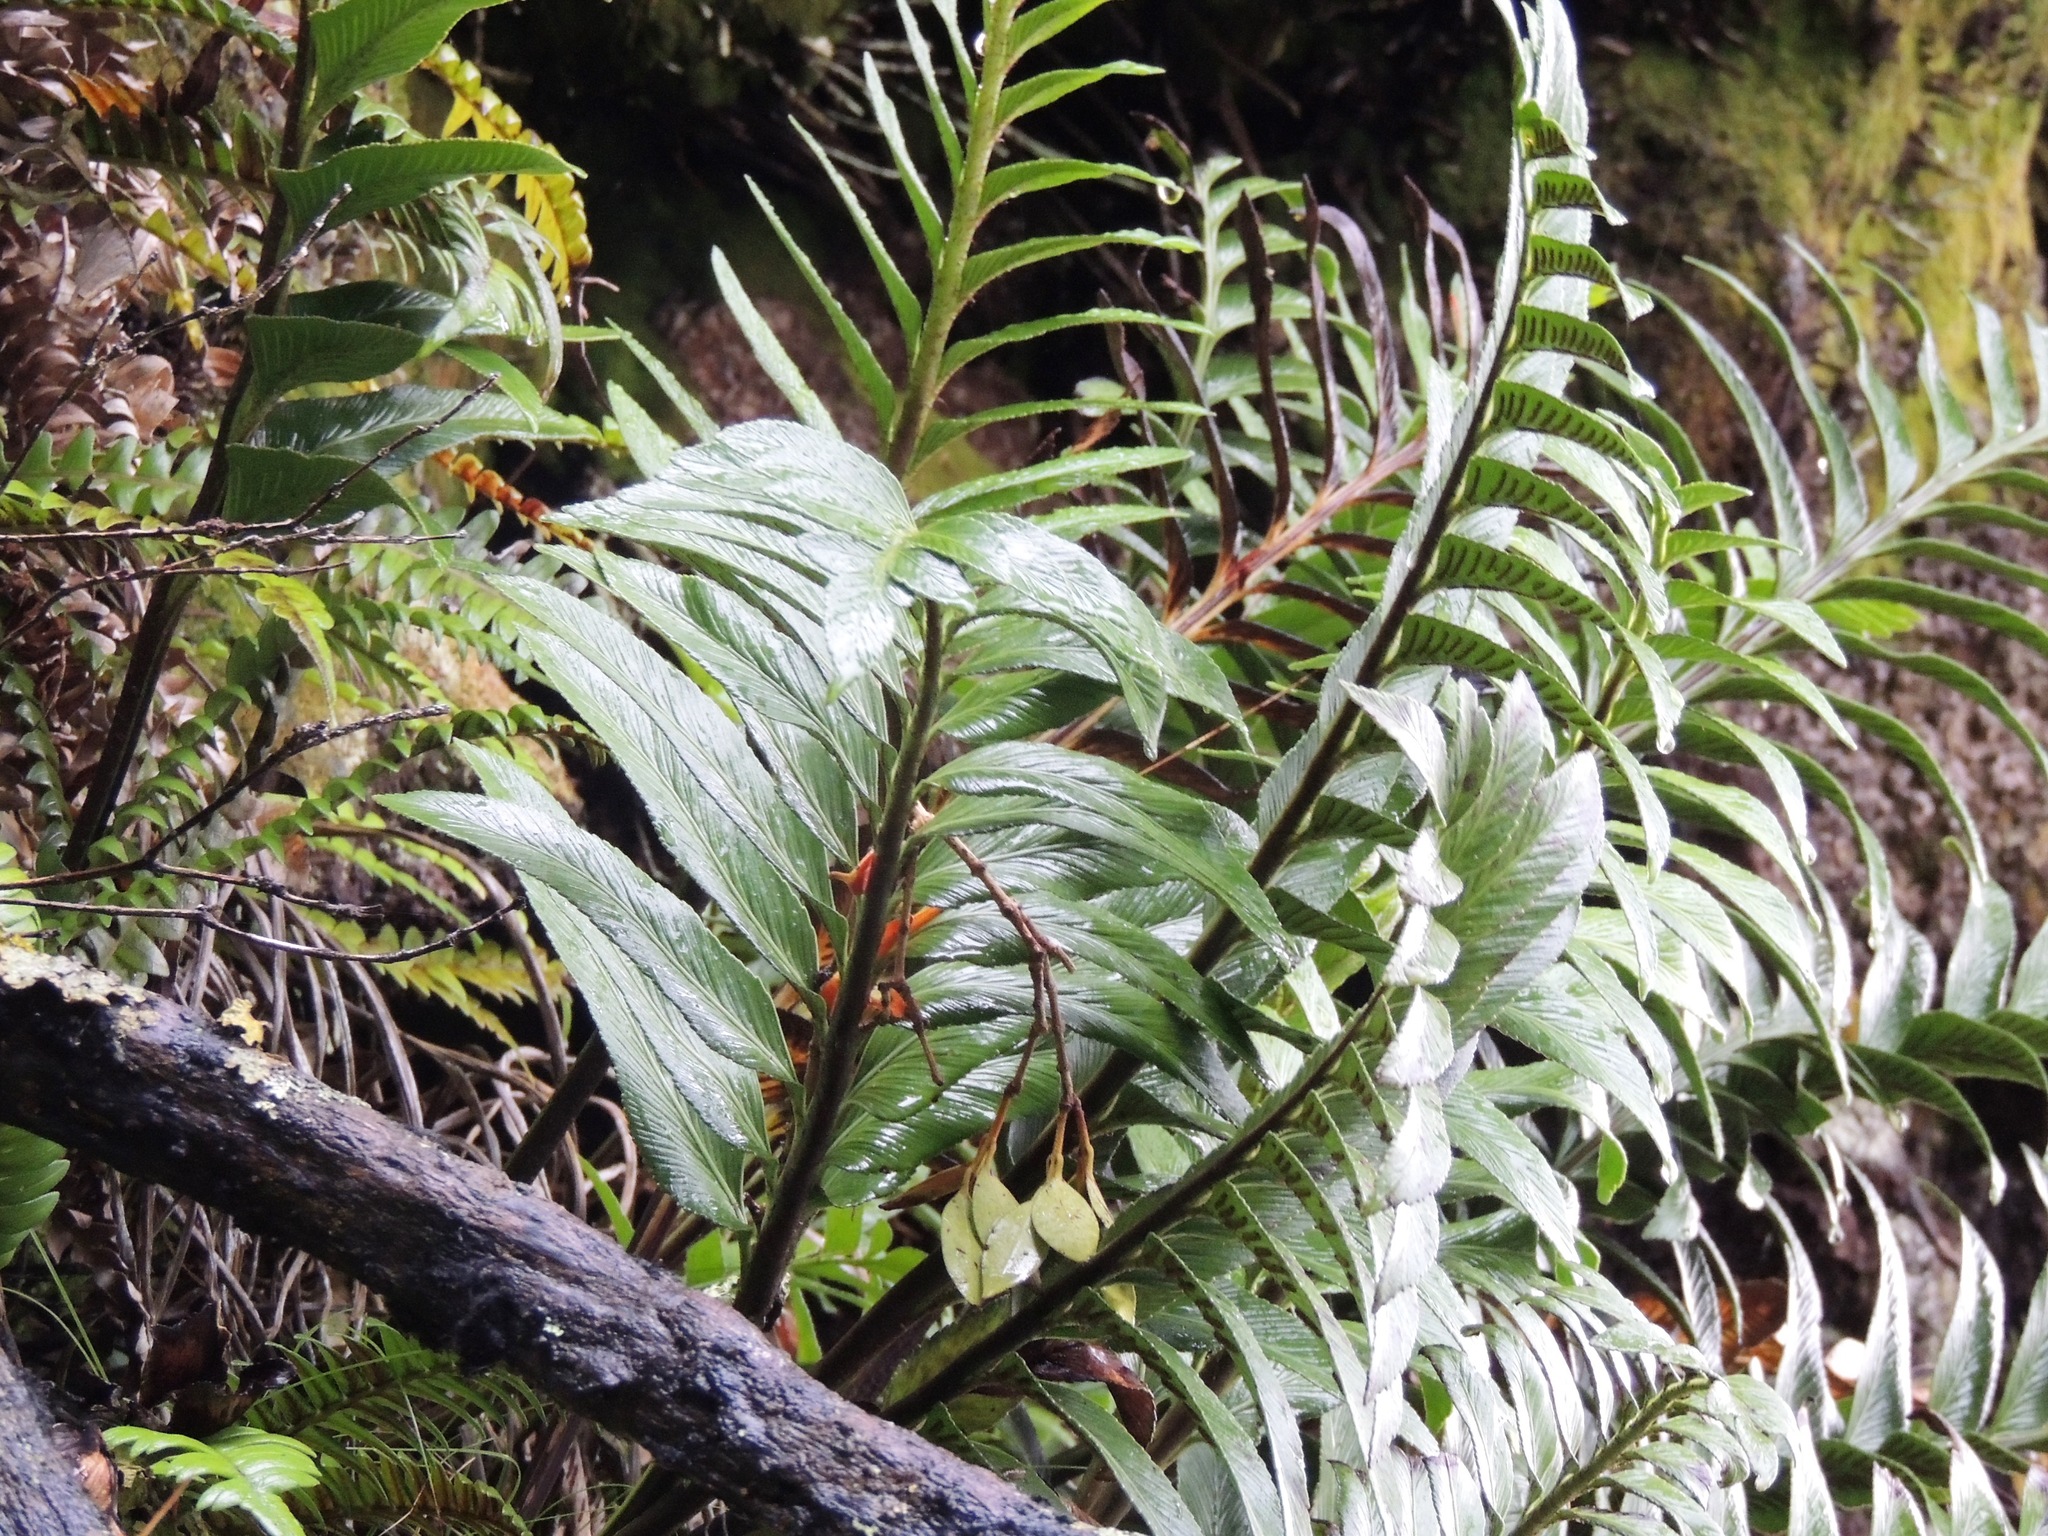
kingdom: Plantae
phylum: Tracheophyta
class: Polypodiopsida
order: Polypodiales
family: Aspleniaceae
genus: Asplenium
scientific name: Asplenium obtusatum
